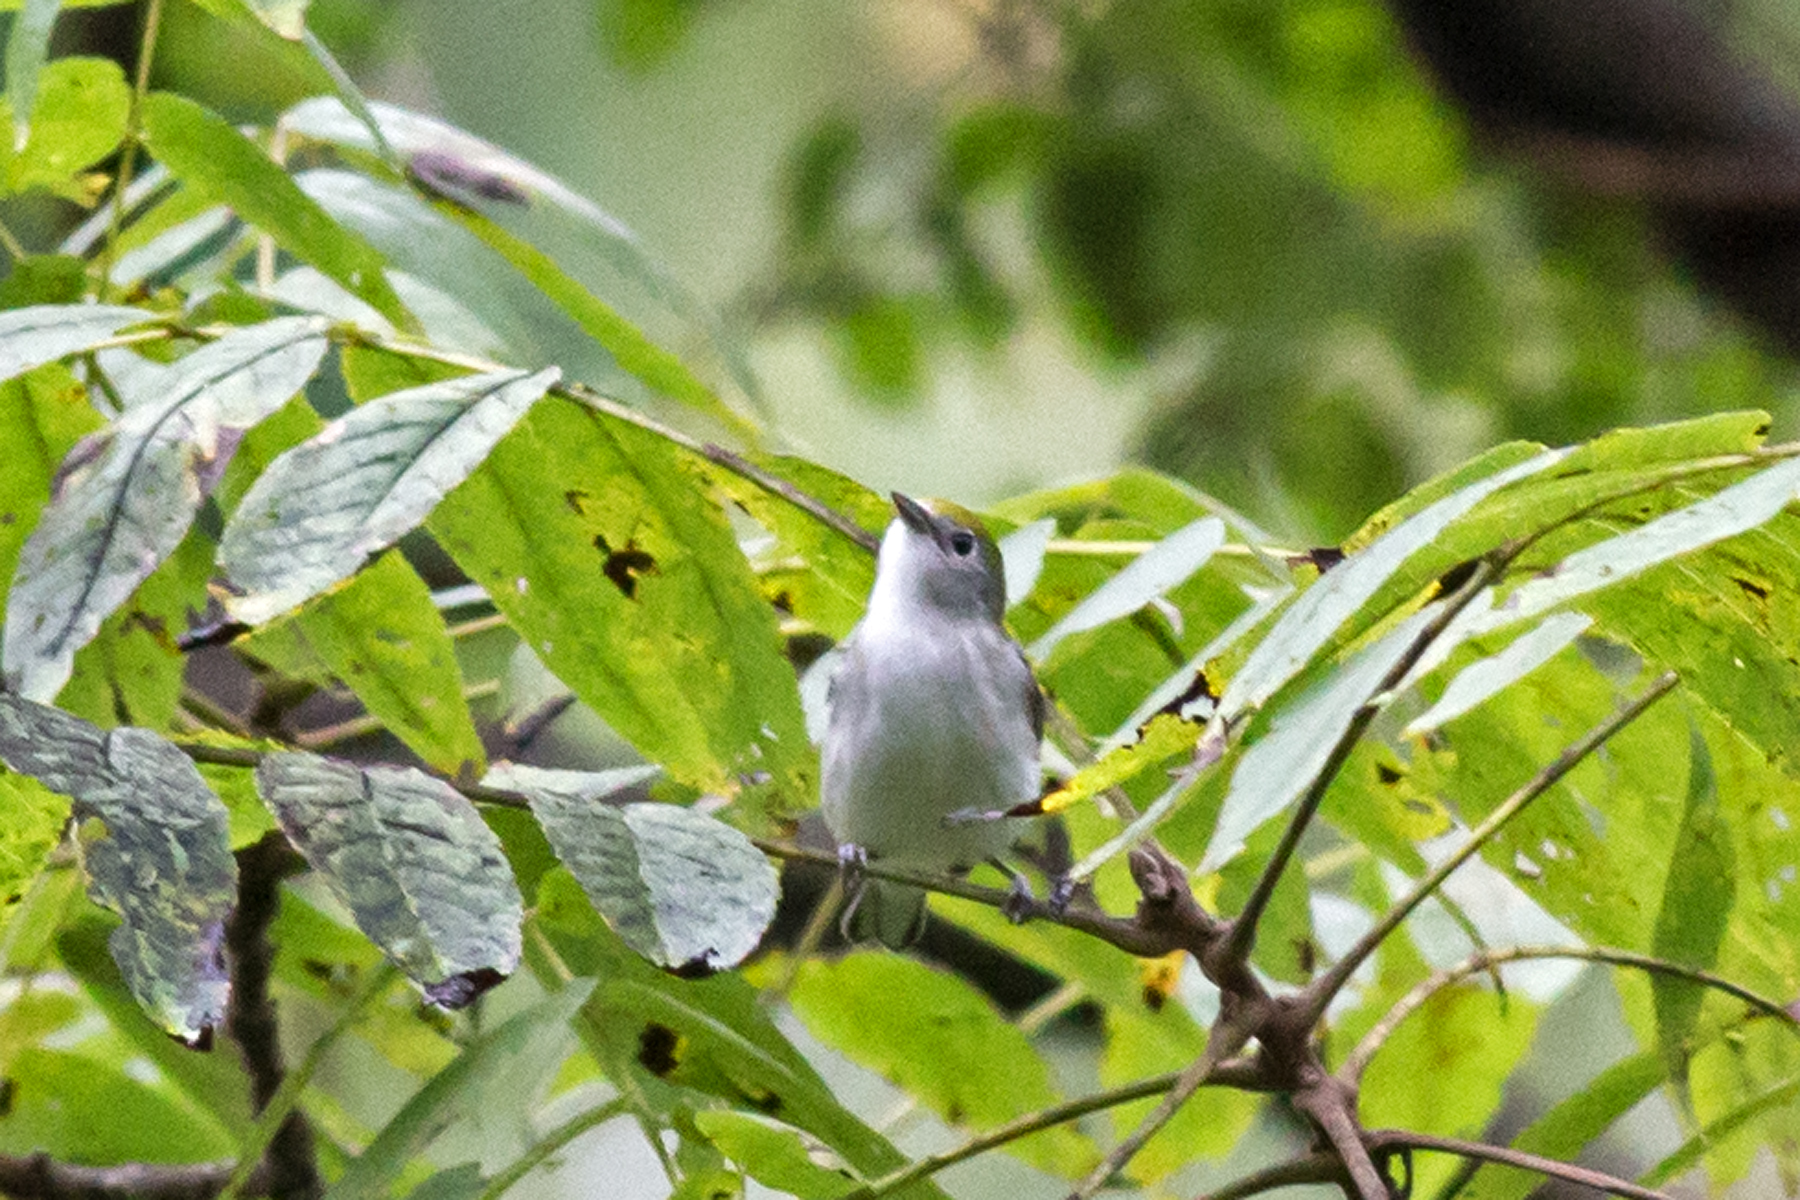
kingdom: Animalia
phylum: Chordata
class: Aves
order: Passeriformes
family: Parulidae
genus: Setophaga
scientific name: Setophaga pensylvanica
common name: Chestnut-sided warbler
